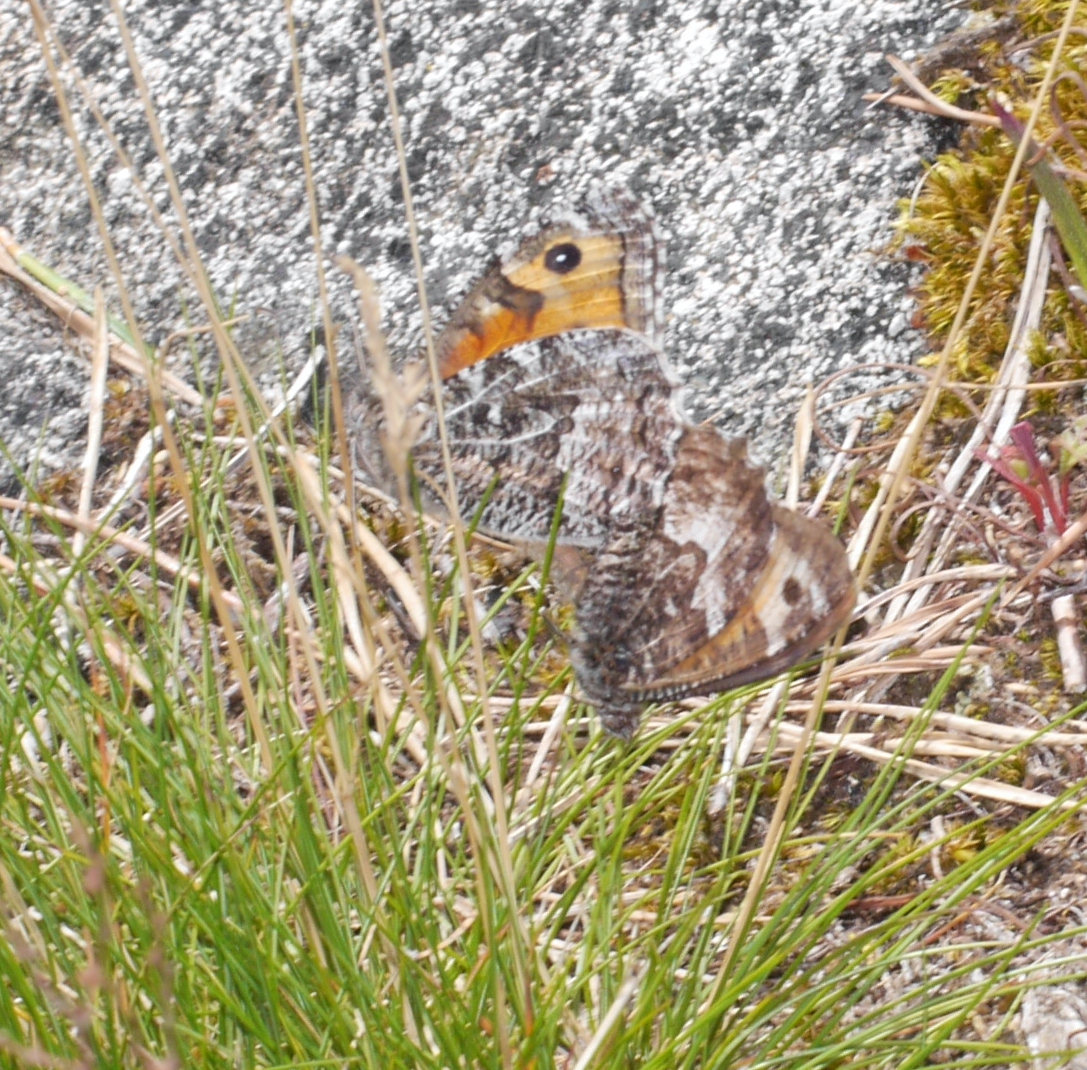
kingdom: Animalia
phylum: Arthropoda
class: Insecta
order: Lepidoptera
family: Nymphalidae
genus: Hipparchia
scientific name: Hipparchia semele
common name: Grayling
